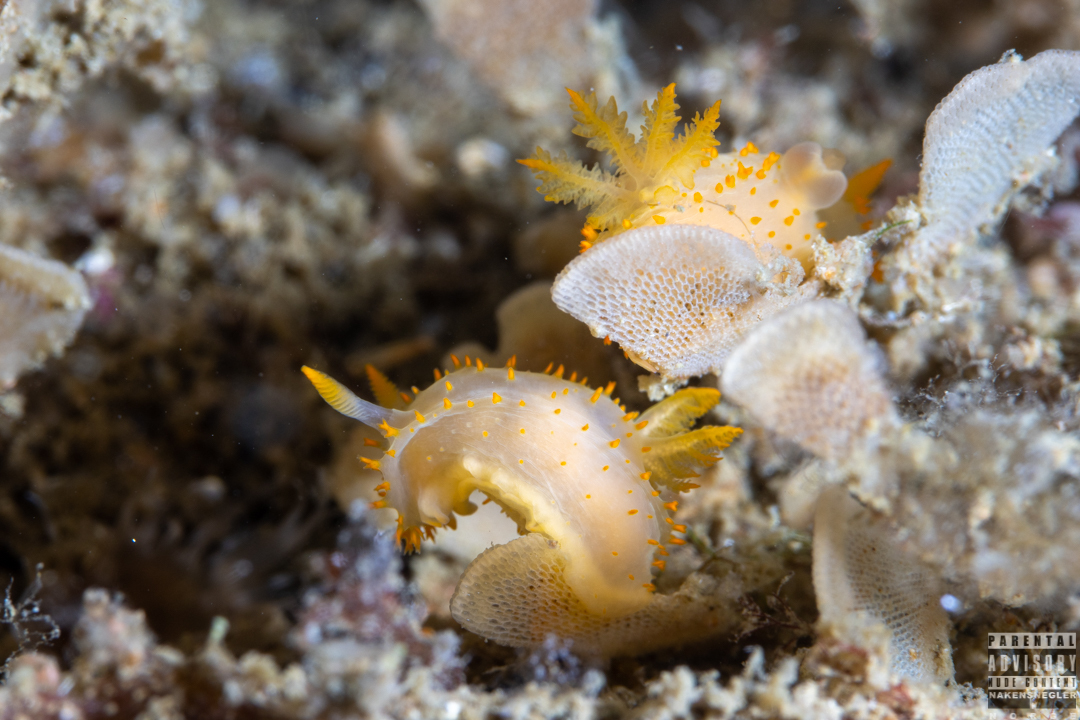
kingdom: Animalia
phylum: Mollusca
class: Gastropoda
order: Nudibranchia
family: Polyceridae
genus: Crimora
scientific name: Crimora papillata
